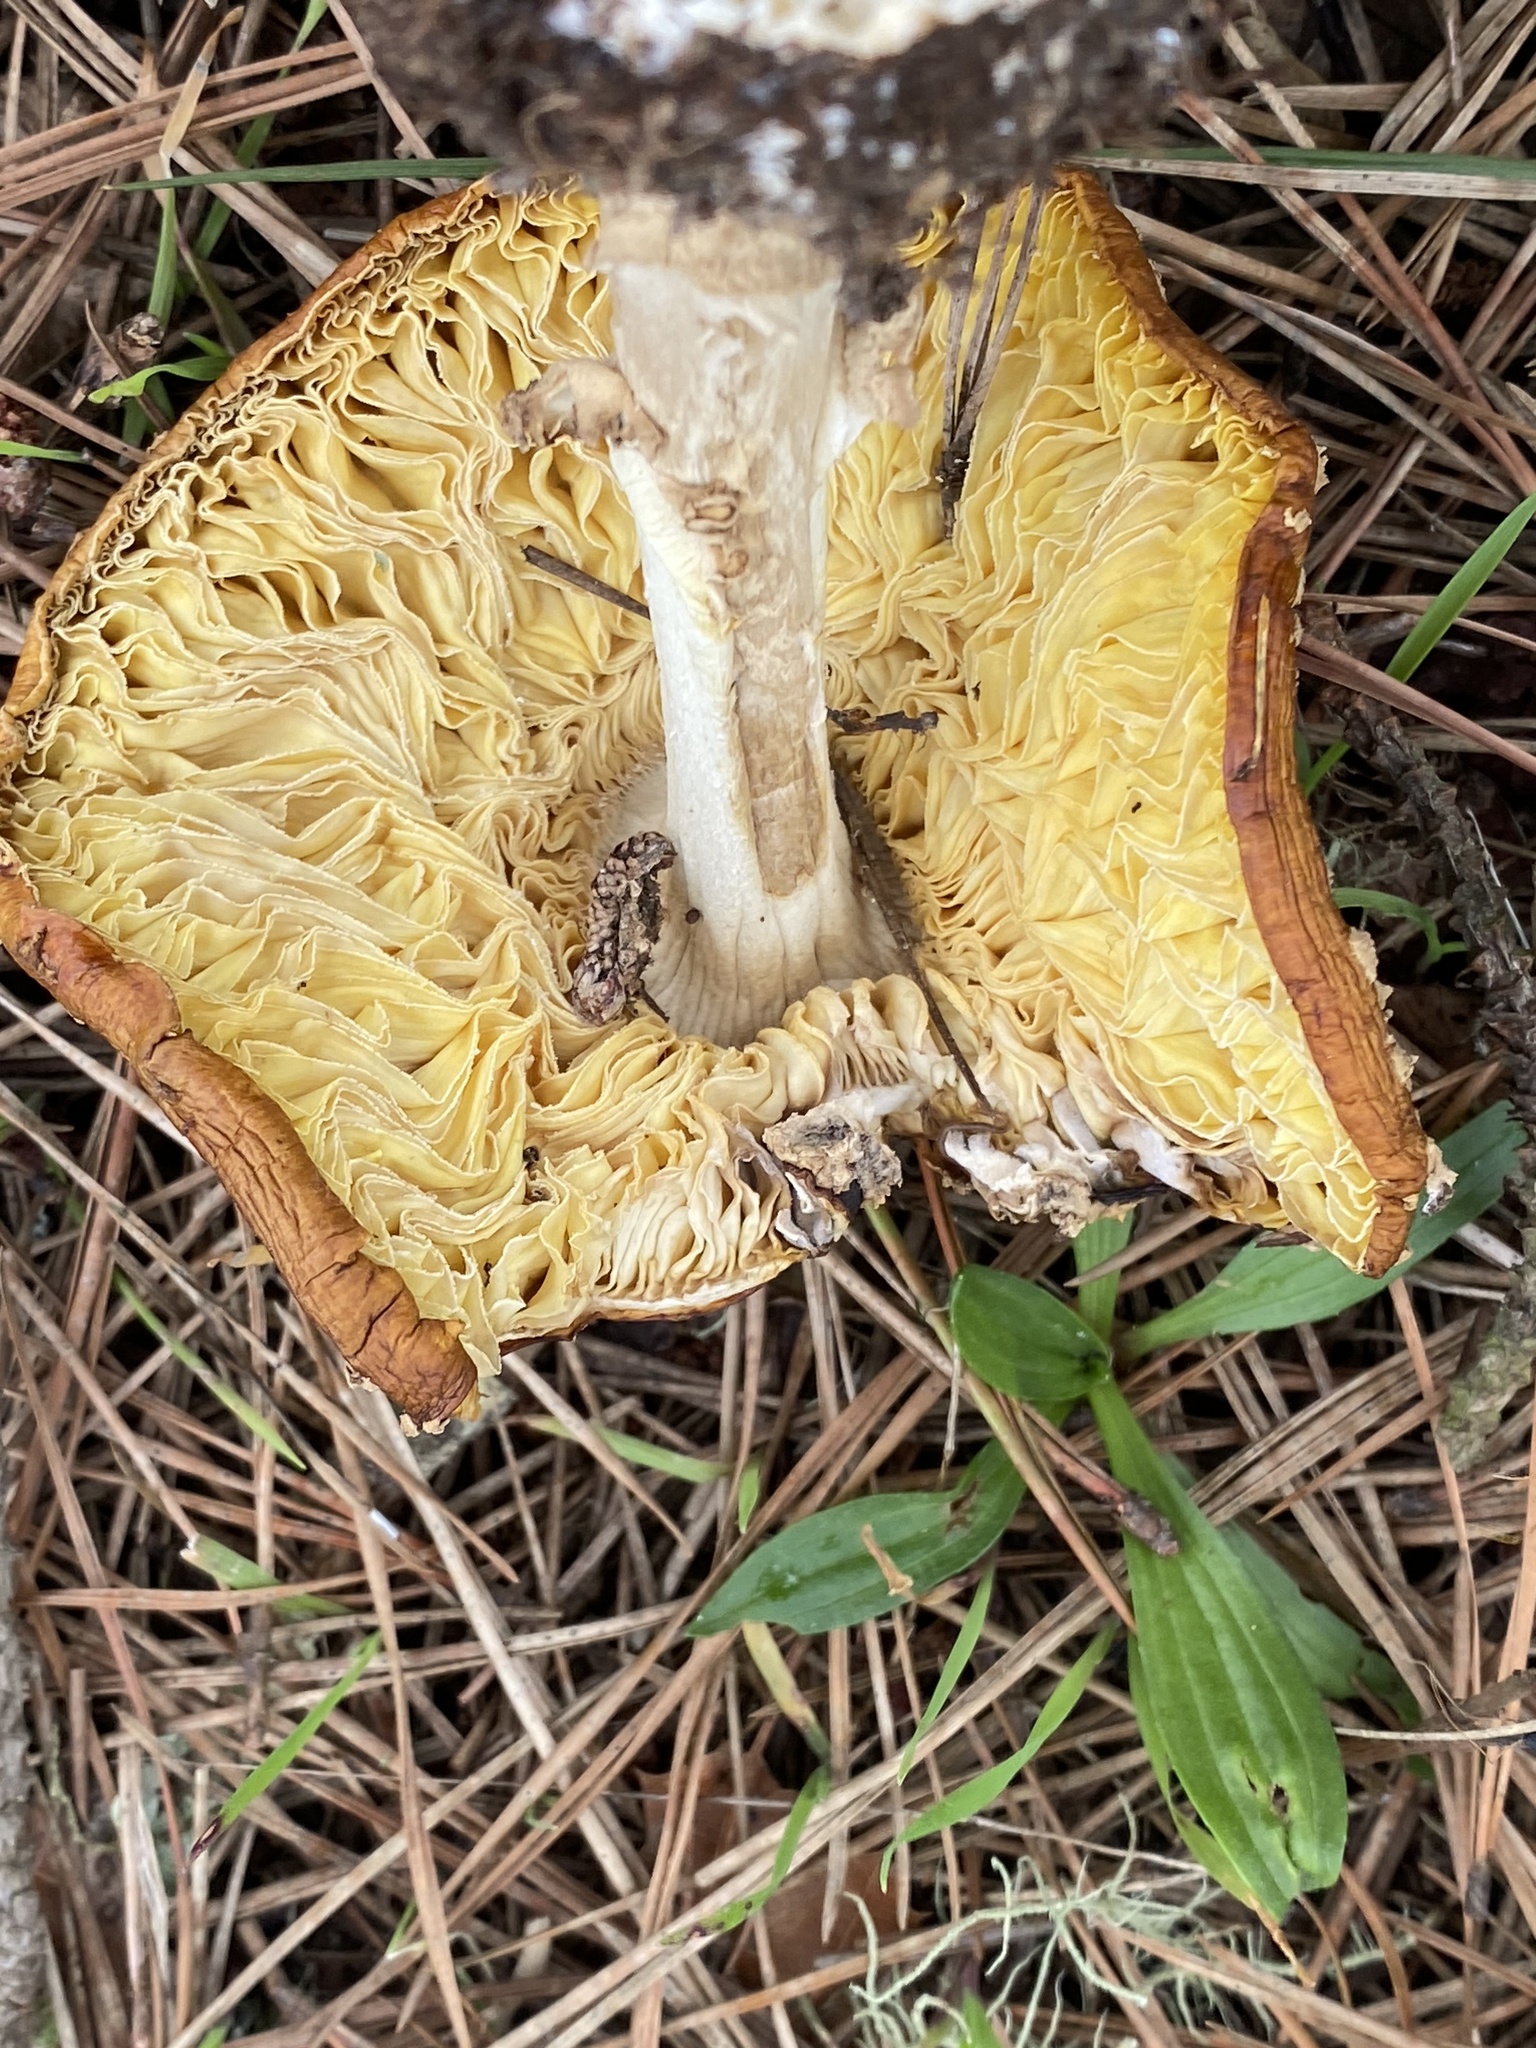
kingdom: Fungi
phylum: Basidiomycota
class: Agaricomycetes
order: Agaricales
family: Amanitaceae
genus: Amanita
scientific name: Amanita muscaria
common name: Fly agaric
